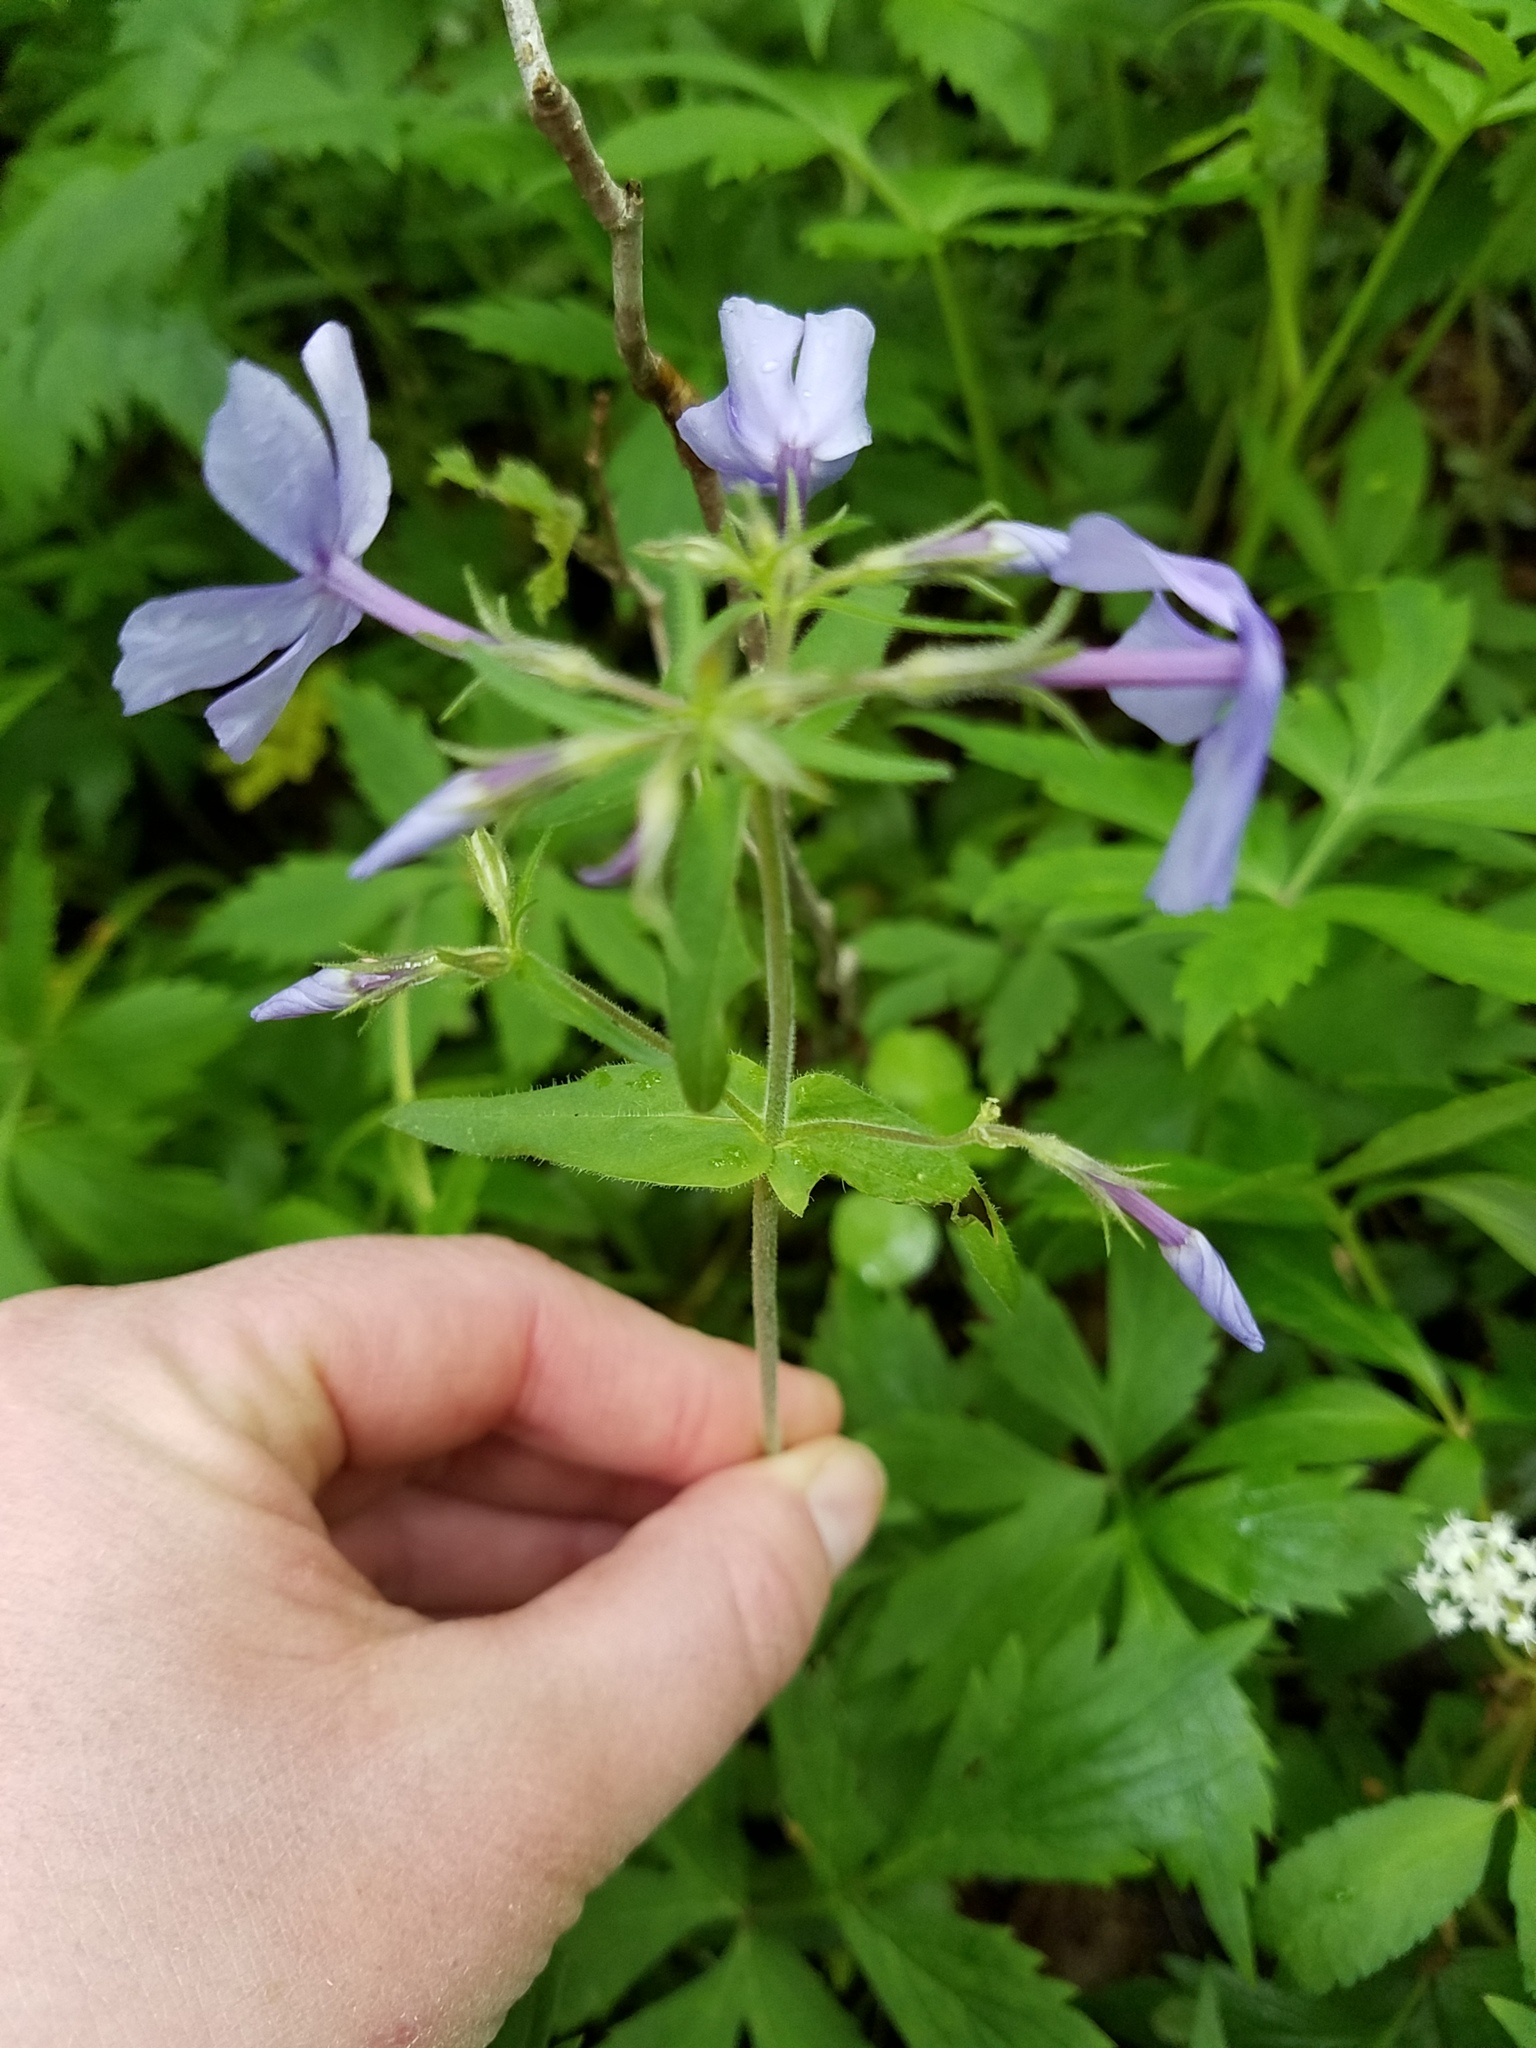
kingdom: Plantae
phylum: Tracheophyta
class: Magnoliopsida
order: Ericales
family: Polemoniaceae
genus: Phlox
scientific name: Phlox divaricata
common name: Blue phlox
